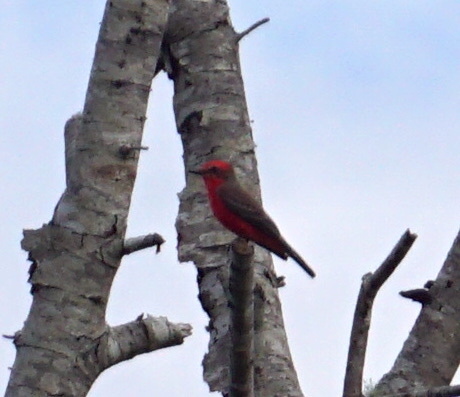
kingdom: Animalia
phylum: Chordata
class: Aves
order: Passeriformes
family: Tyrannidae
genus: Pyrocephalus
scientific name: Pyrocephalus rubinus
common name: Vermilion flycatcher
